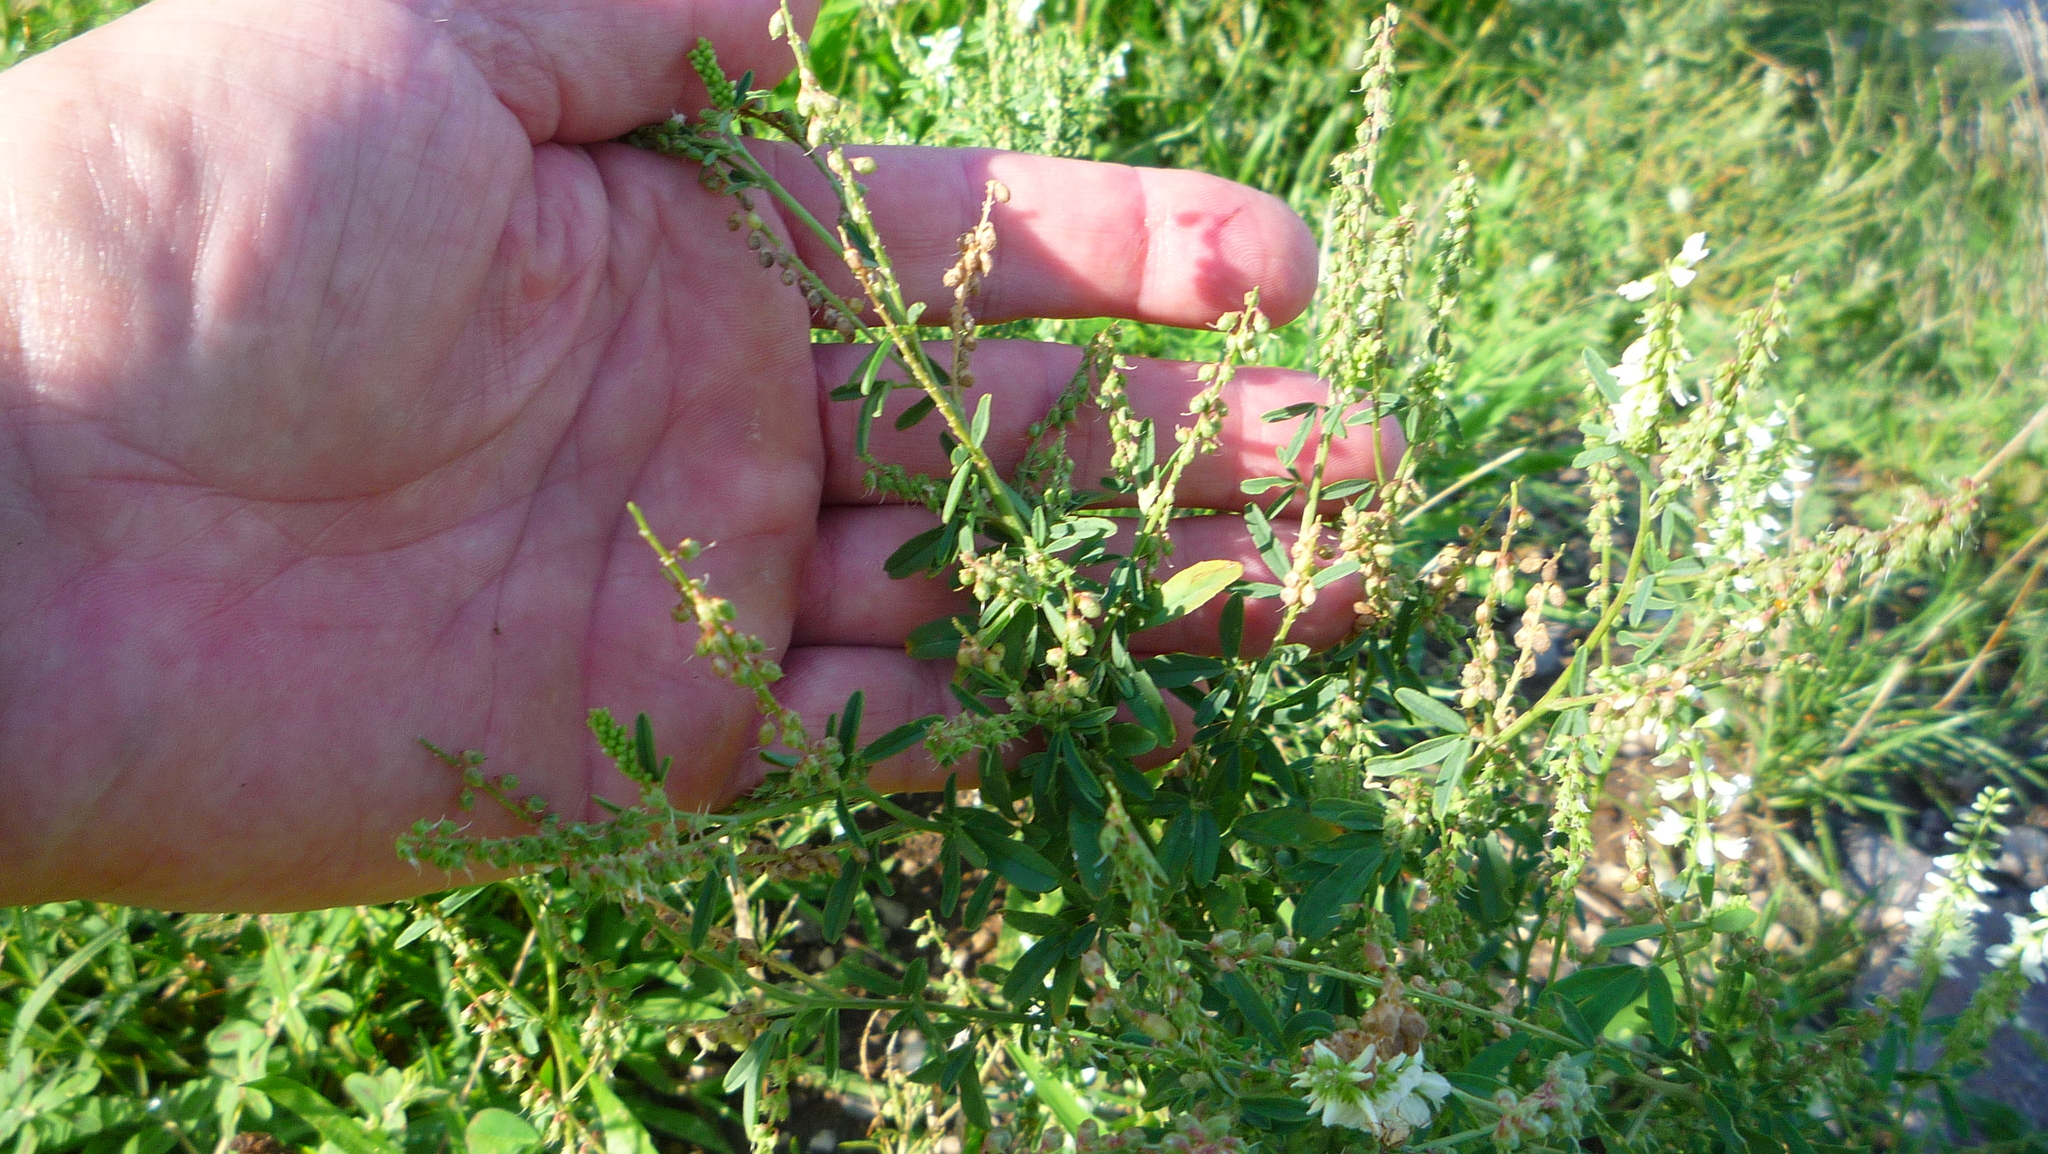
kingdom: Plantae
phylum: Tracheophyta
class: Magnoliopsida
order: Fabales
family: Fabaceae
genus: Melilotus
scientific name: Melilotus albus
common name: White melilot
